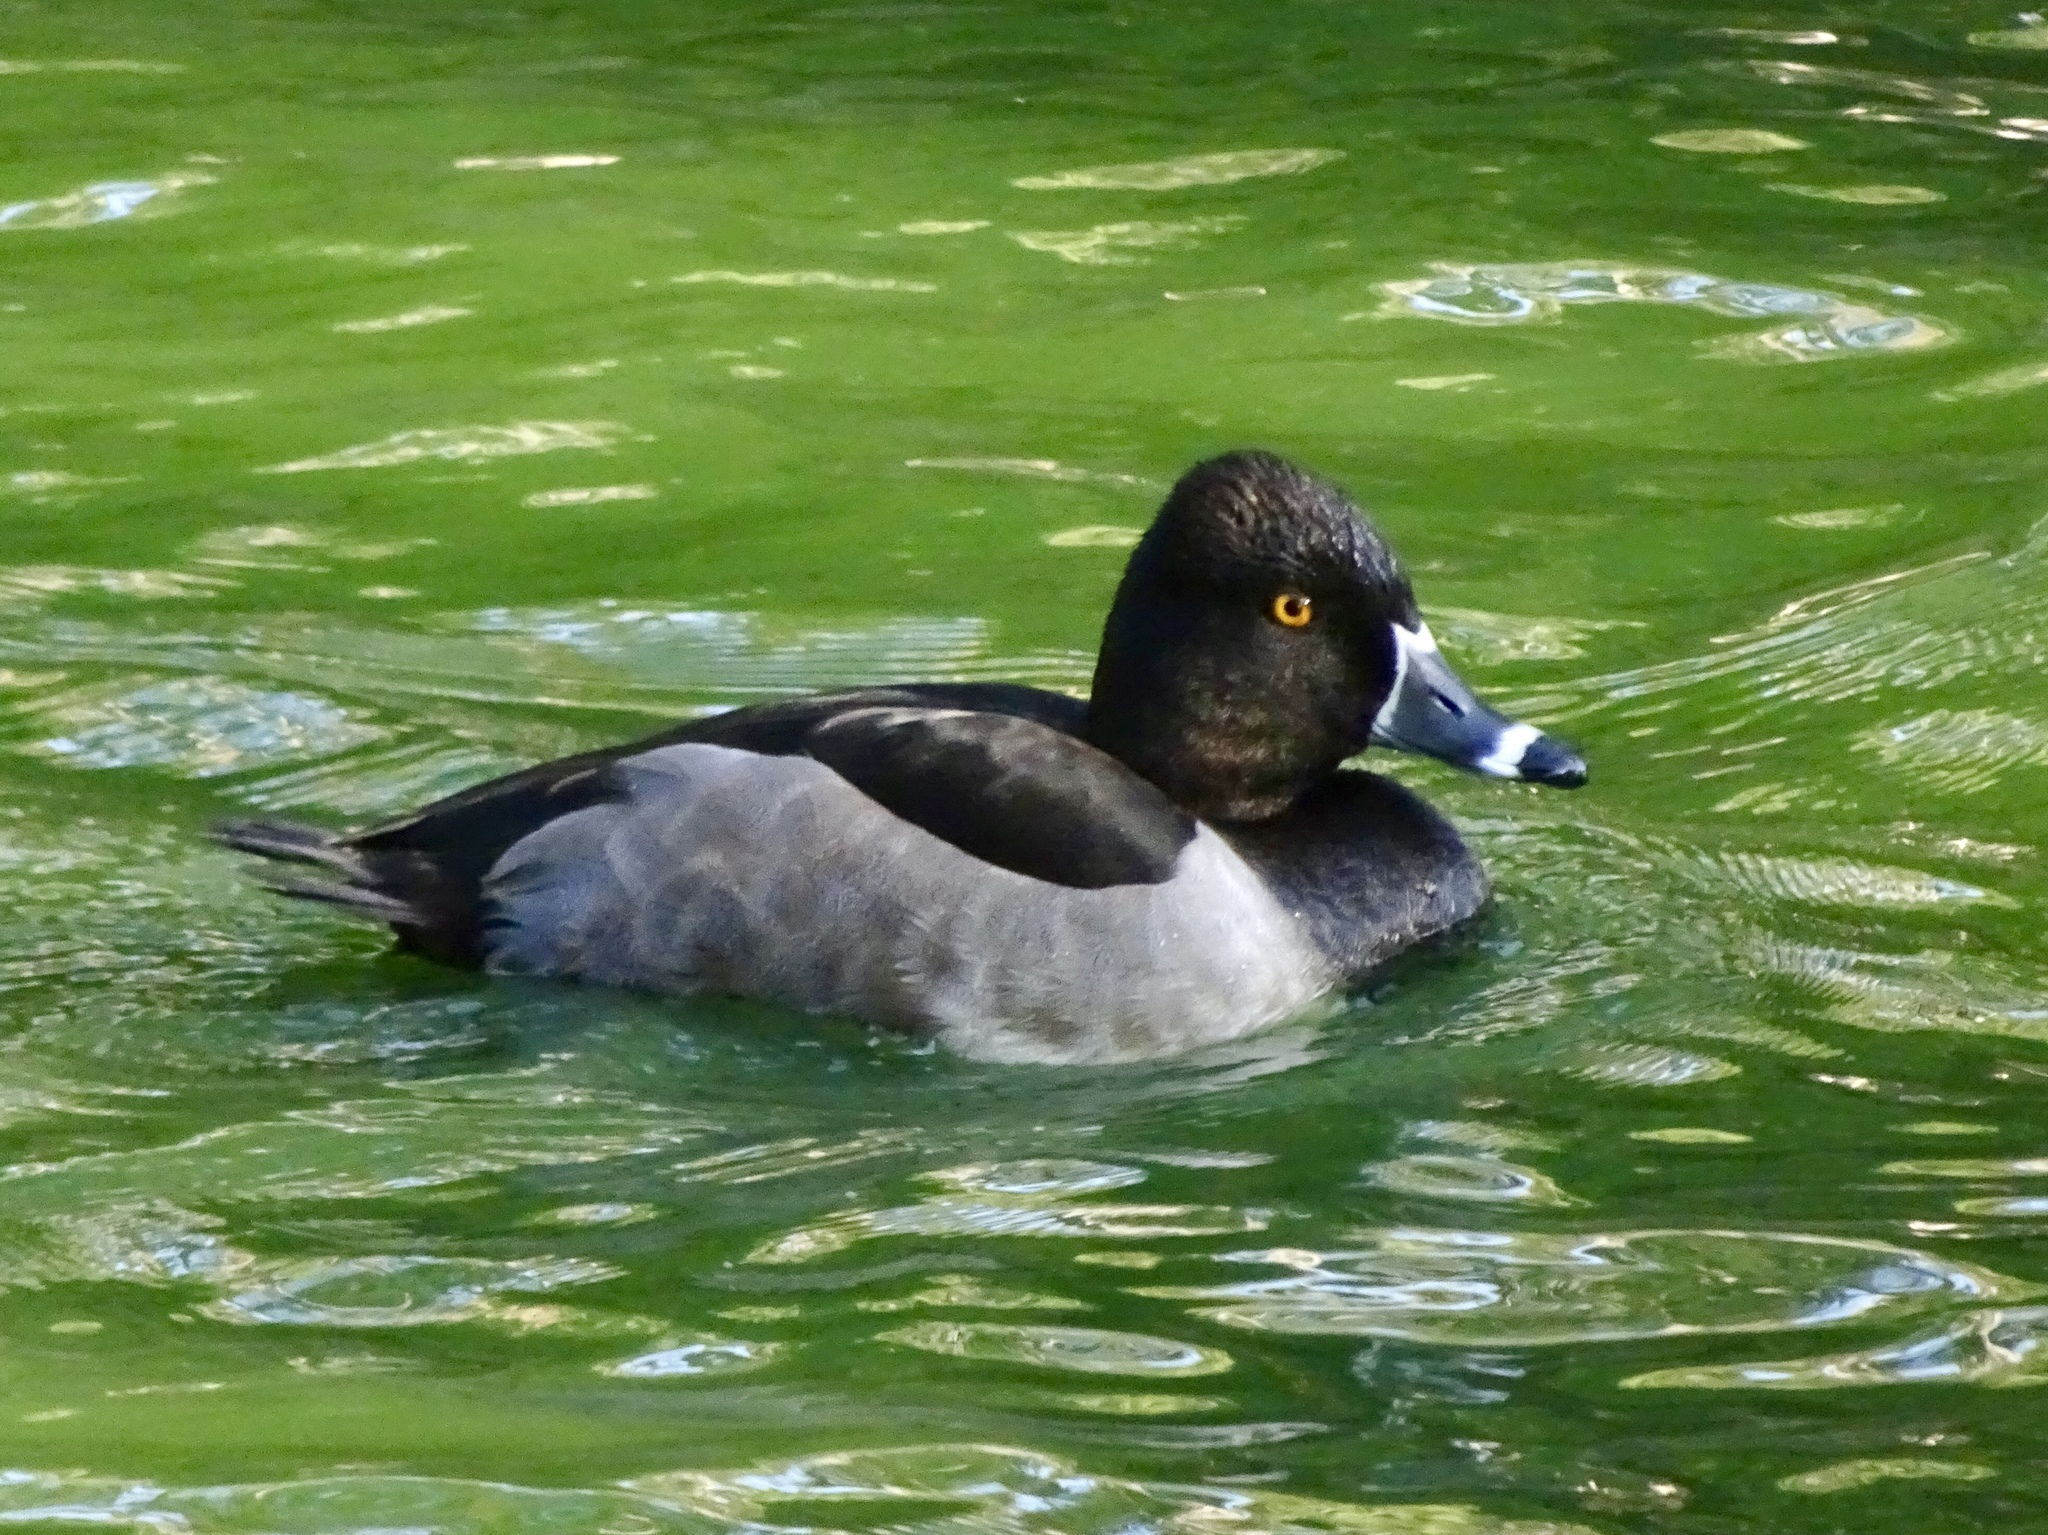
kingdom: Animalia
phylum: Chordata
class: Aves
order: Anseriformes
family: Anatidae
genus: Aythya
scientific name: Aythya collaris
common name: Ring-necked duck
